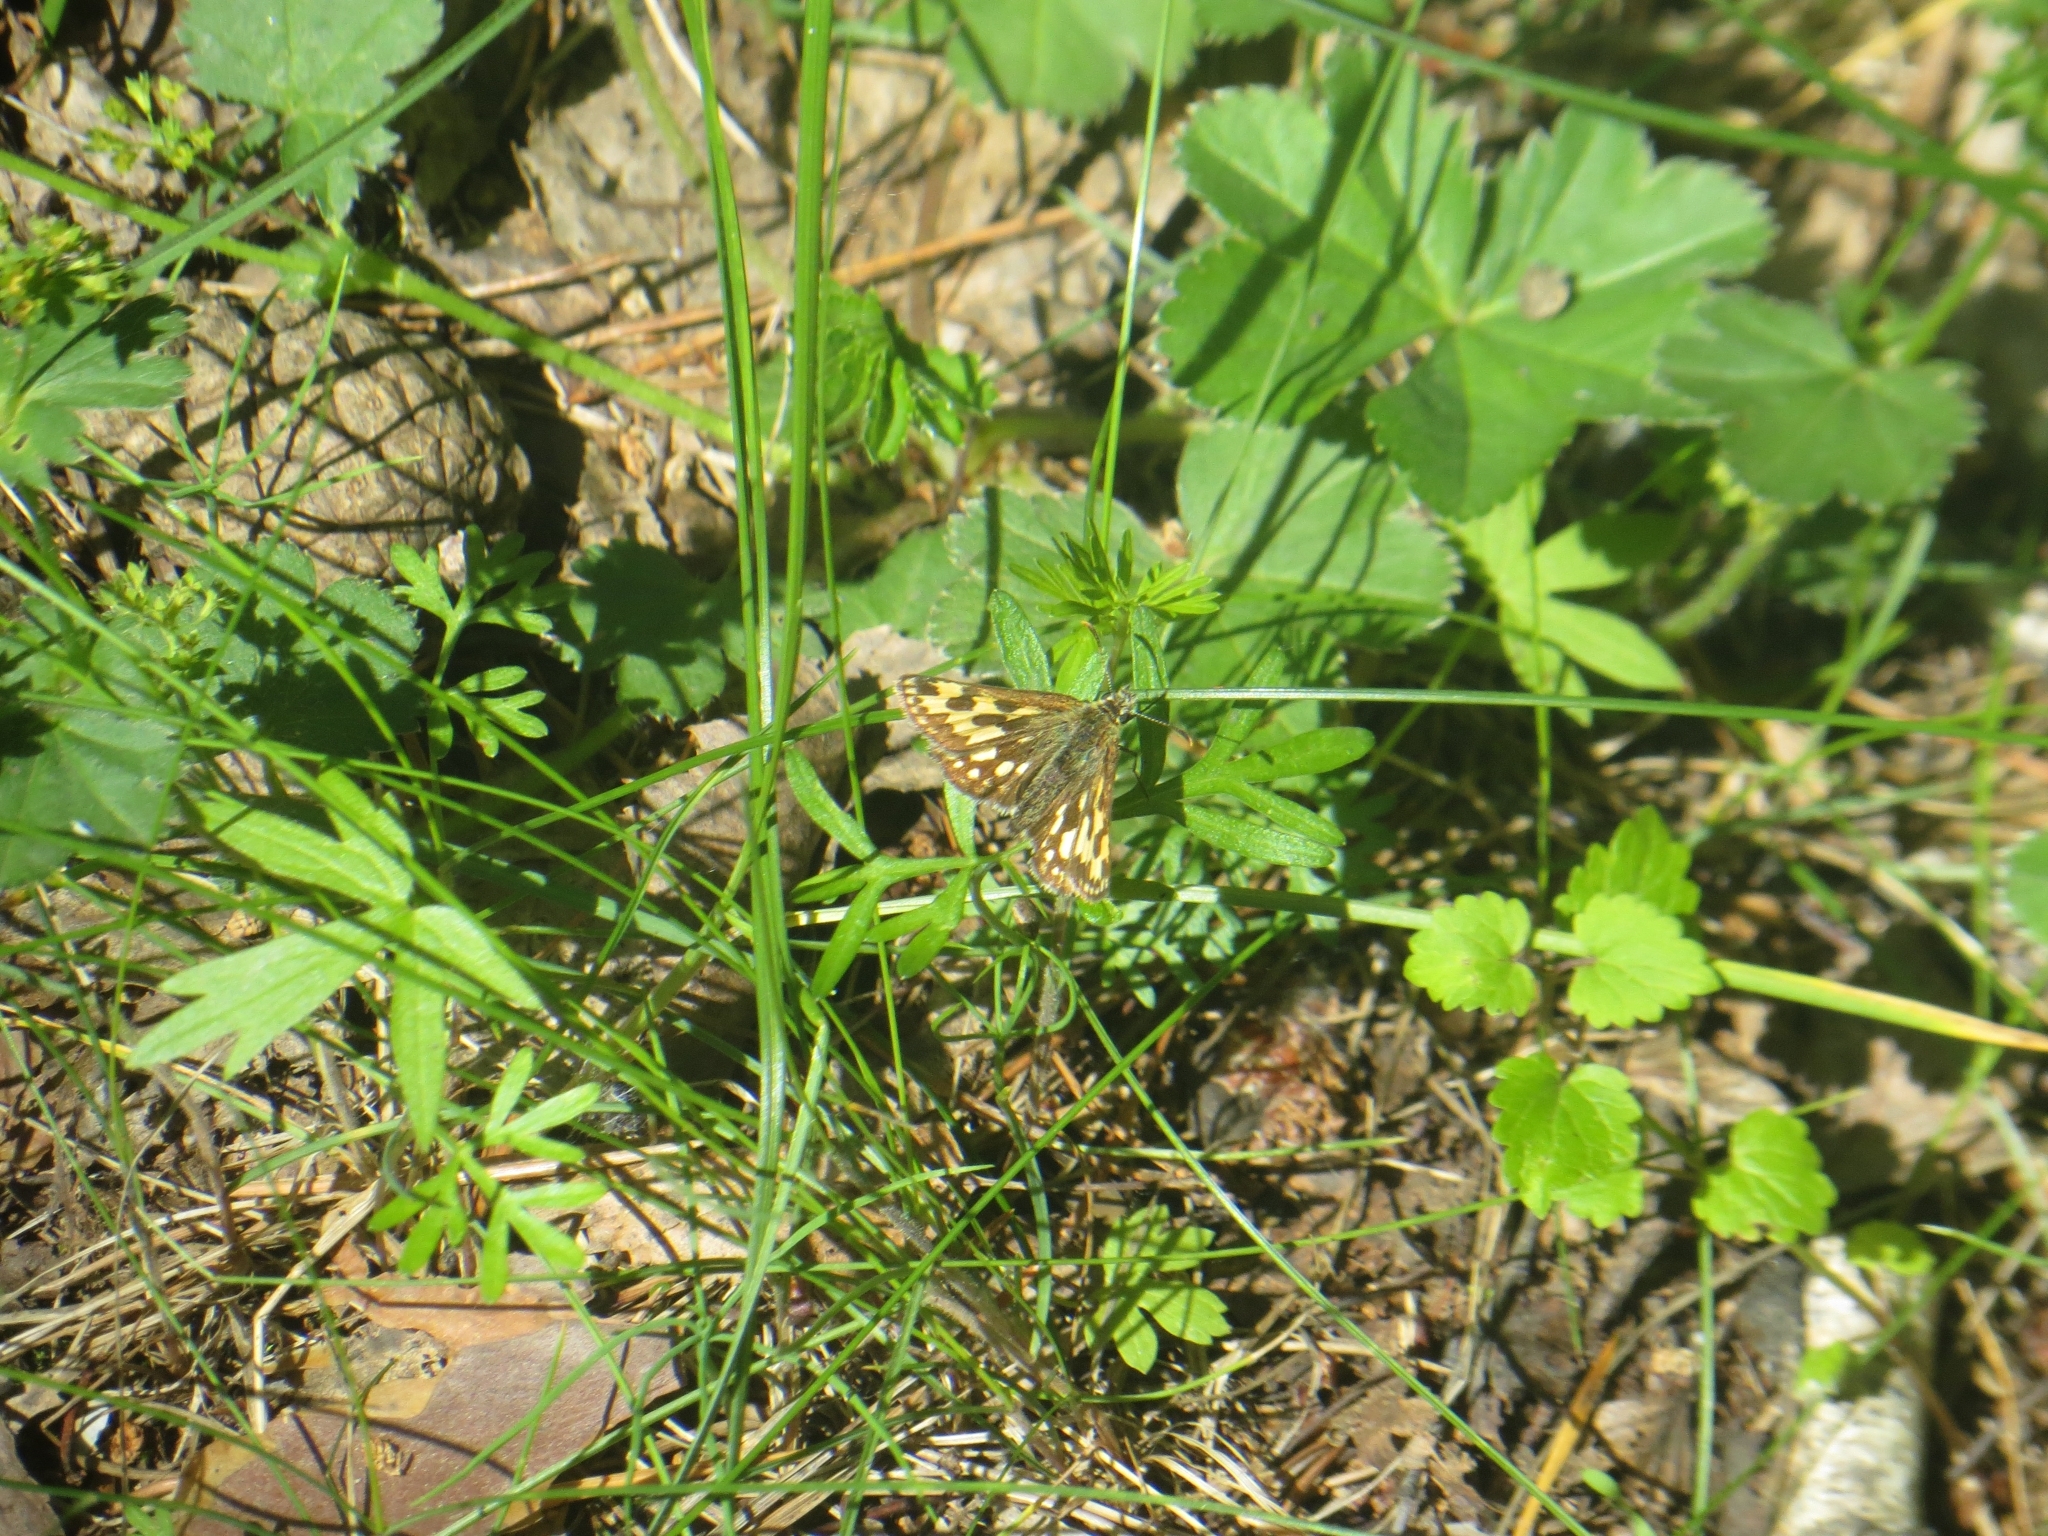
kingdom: Animalia
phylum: Arthropoda
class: Insecta
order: Lepidoptera
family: Hesperiidae
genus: Carterocephalus
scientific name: Carterocephalus silvicola
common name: Northern chequered skipper
